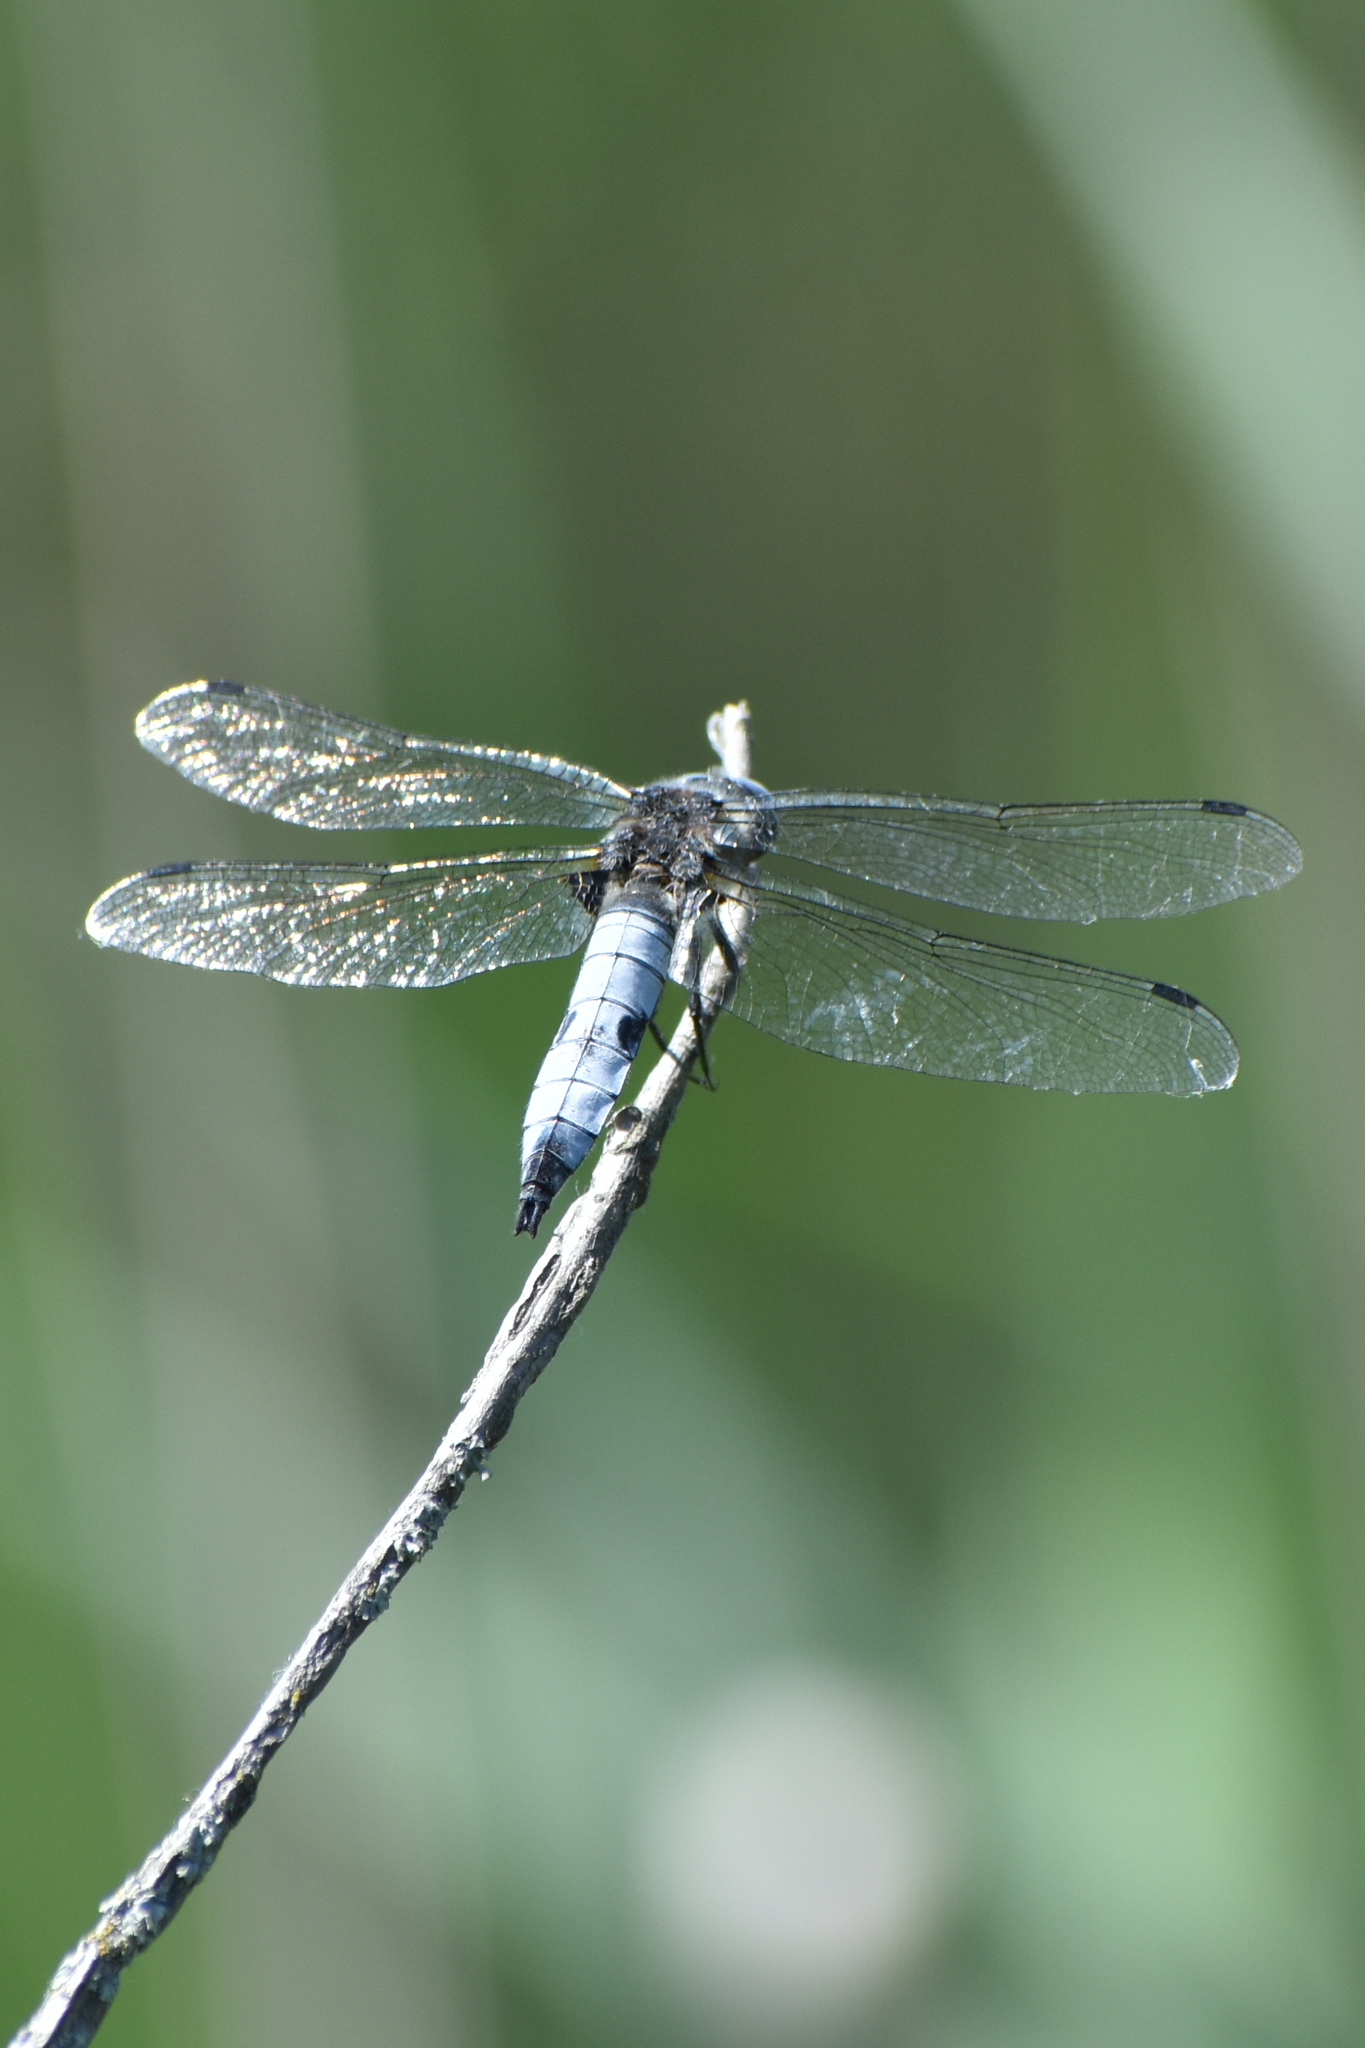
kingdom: Animalia
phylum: Arthropoda
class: Insecta
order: Odonata
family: Libellulidae
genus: Libellula
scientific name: Libellula fulva
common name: Blue chaser
